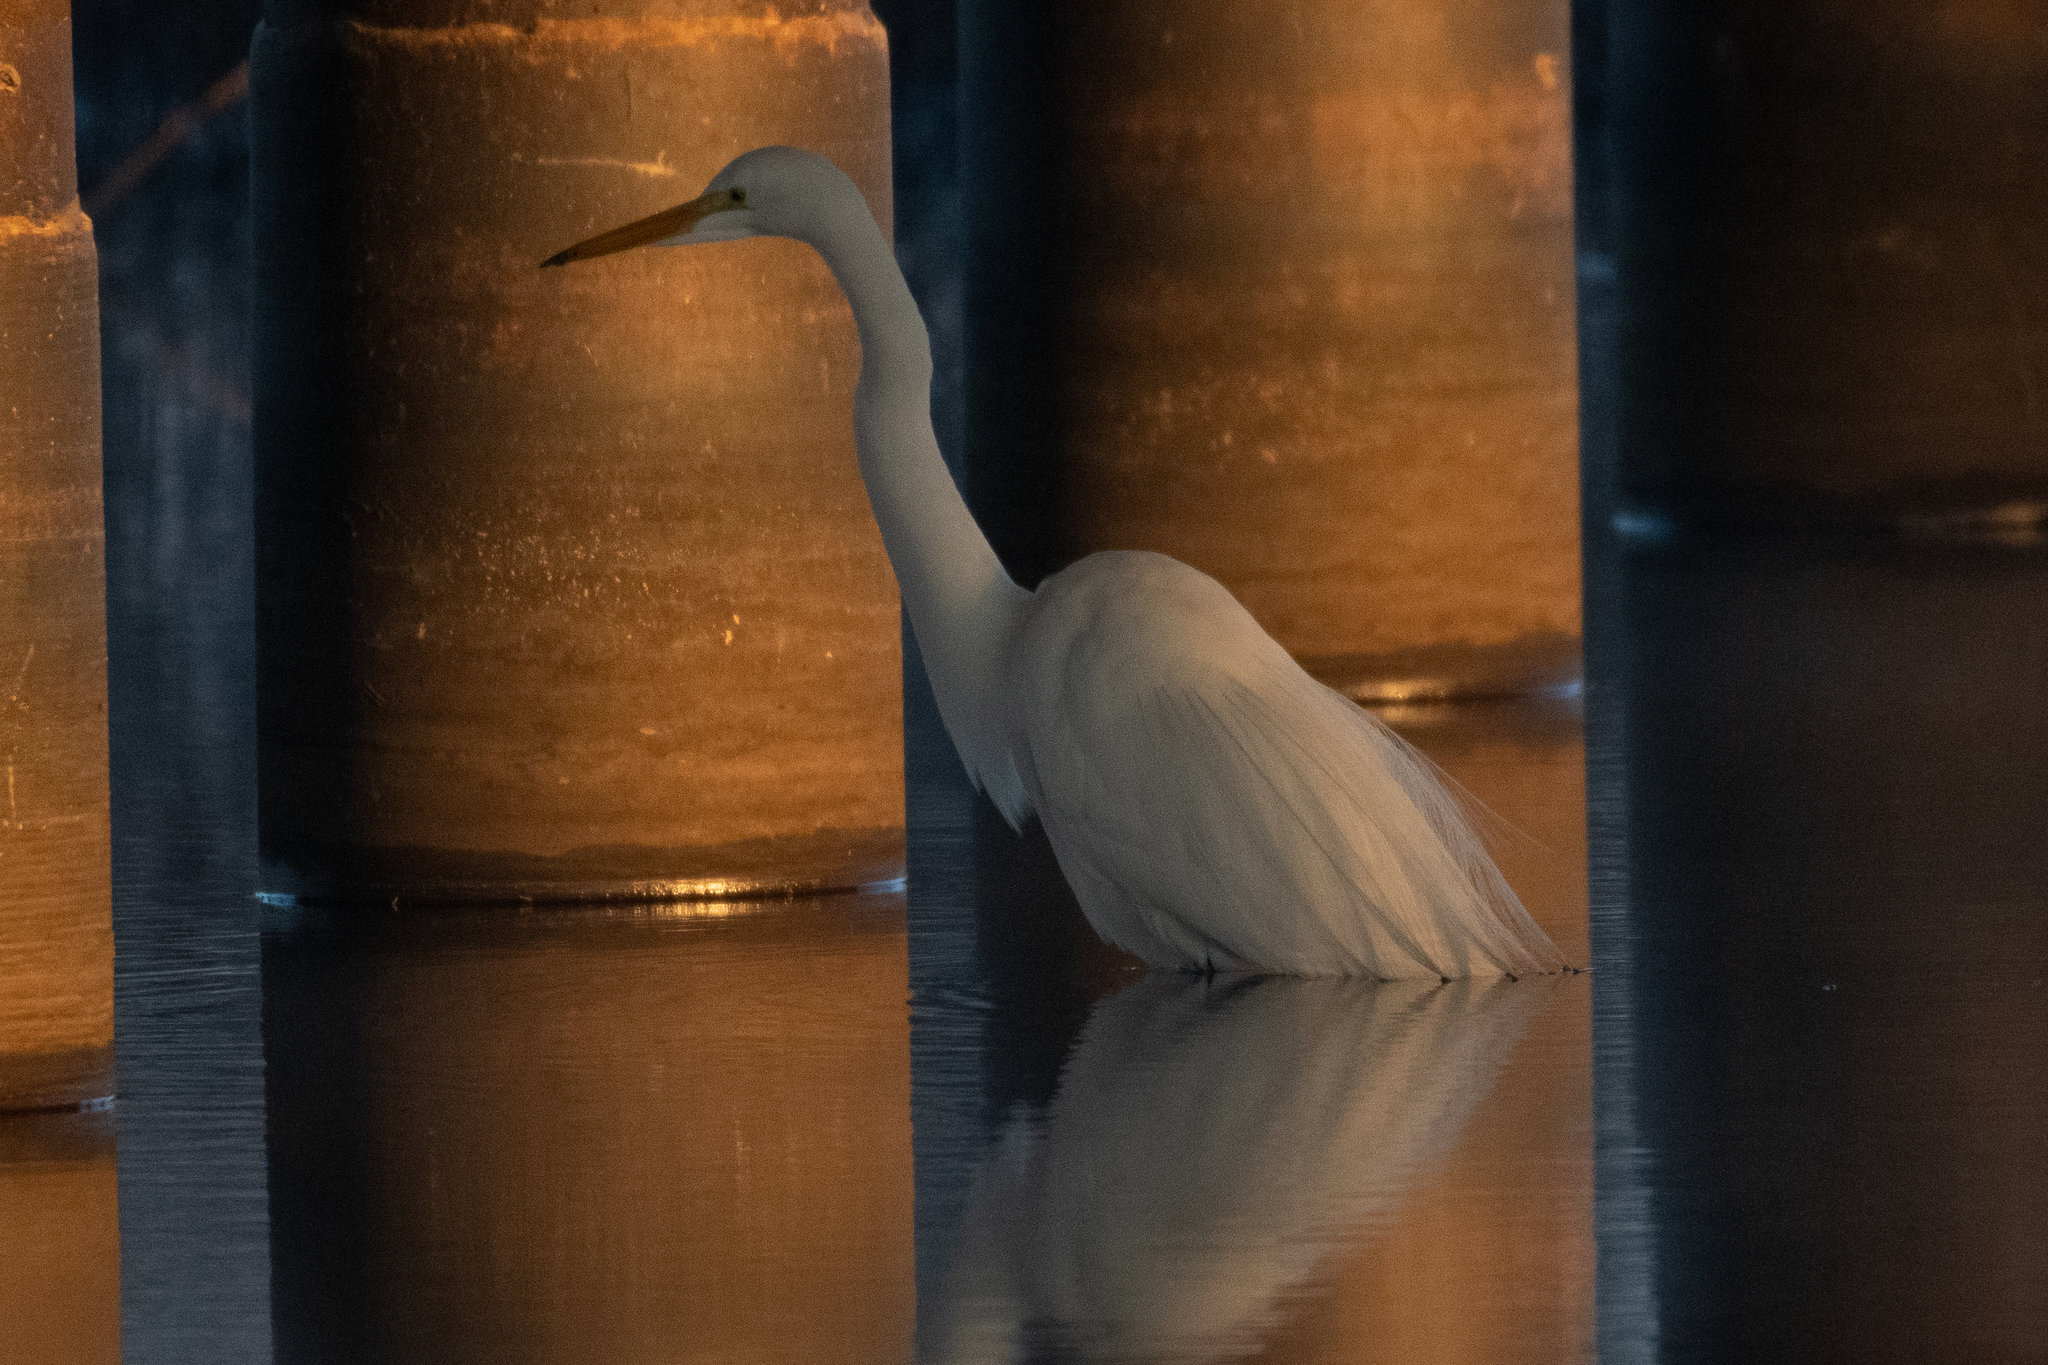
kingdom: Animalia
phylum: Chordata
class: Aves
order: Pelecaniformes
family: Ardeidae
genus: Ardea
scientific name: Ardea alba
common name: Great egret
